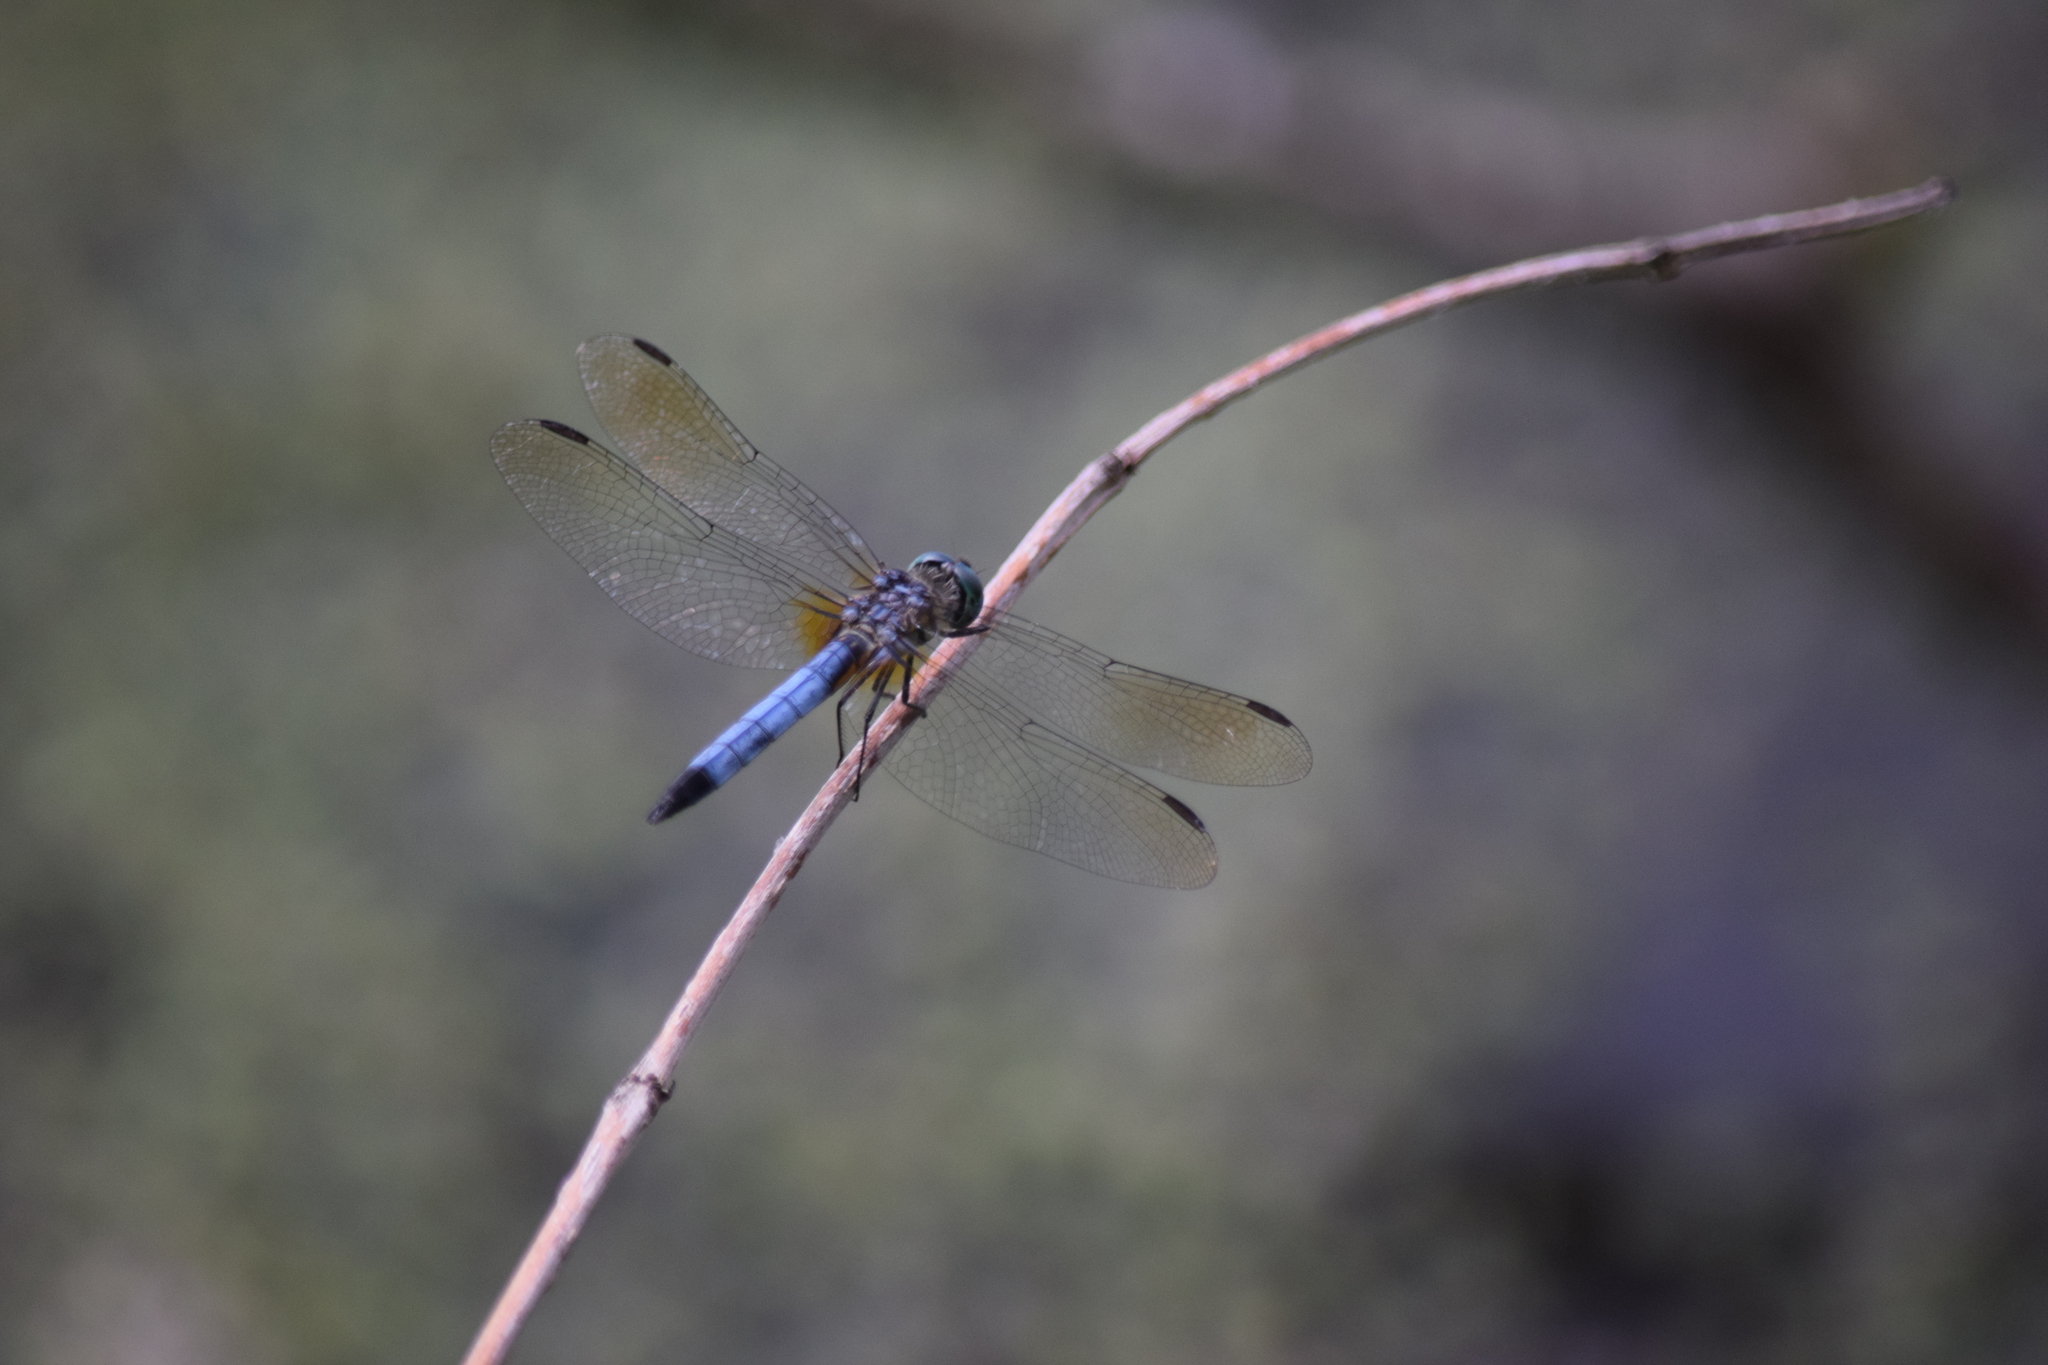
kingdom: Animalia
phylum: Arthropoda
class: Insecta
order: Odonata
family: Libellulidae
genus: Pachydiplax
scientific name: Pachydiplax longipennis
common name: Blue dasher
